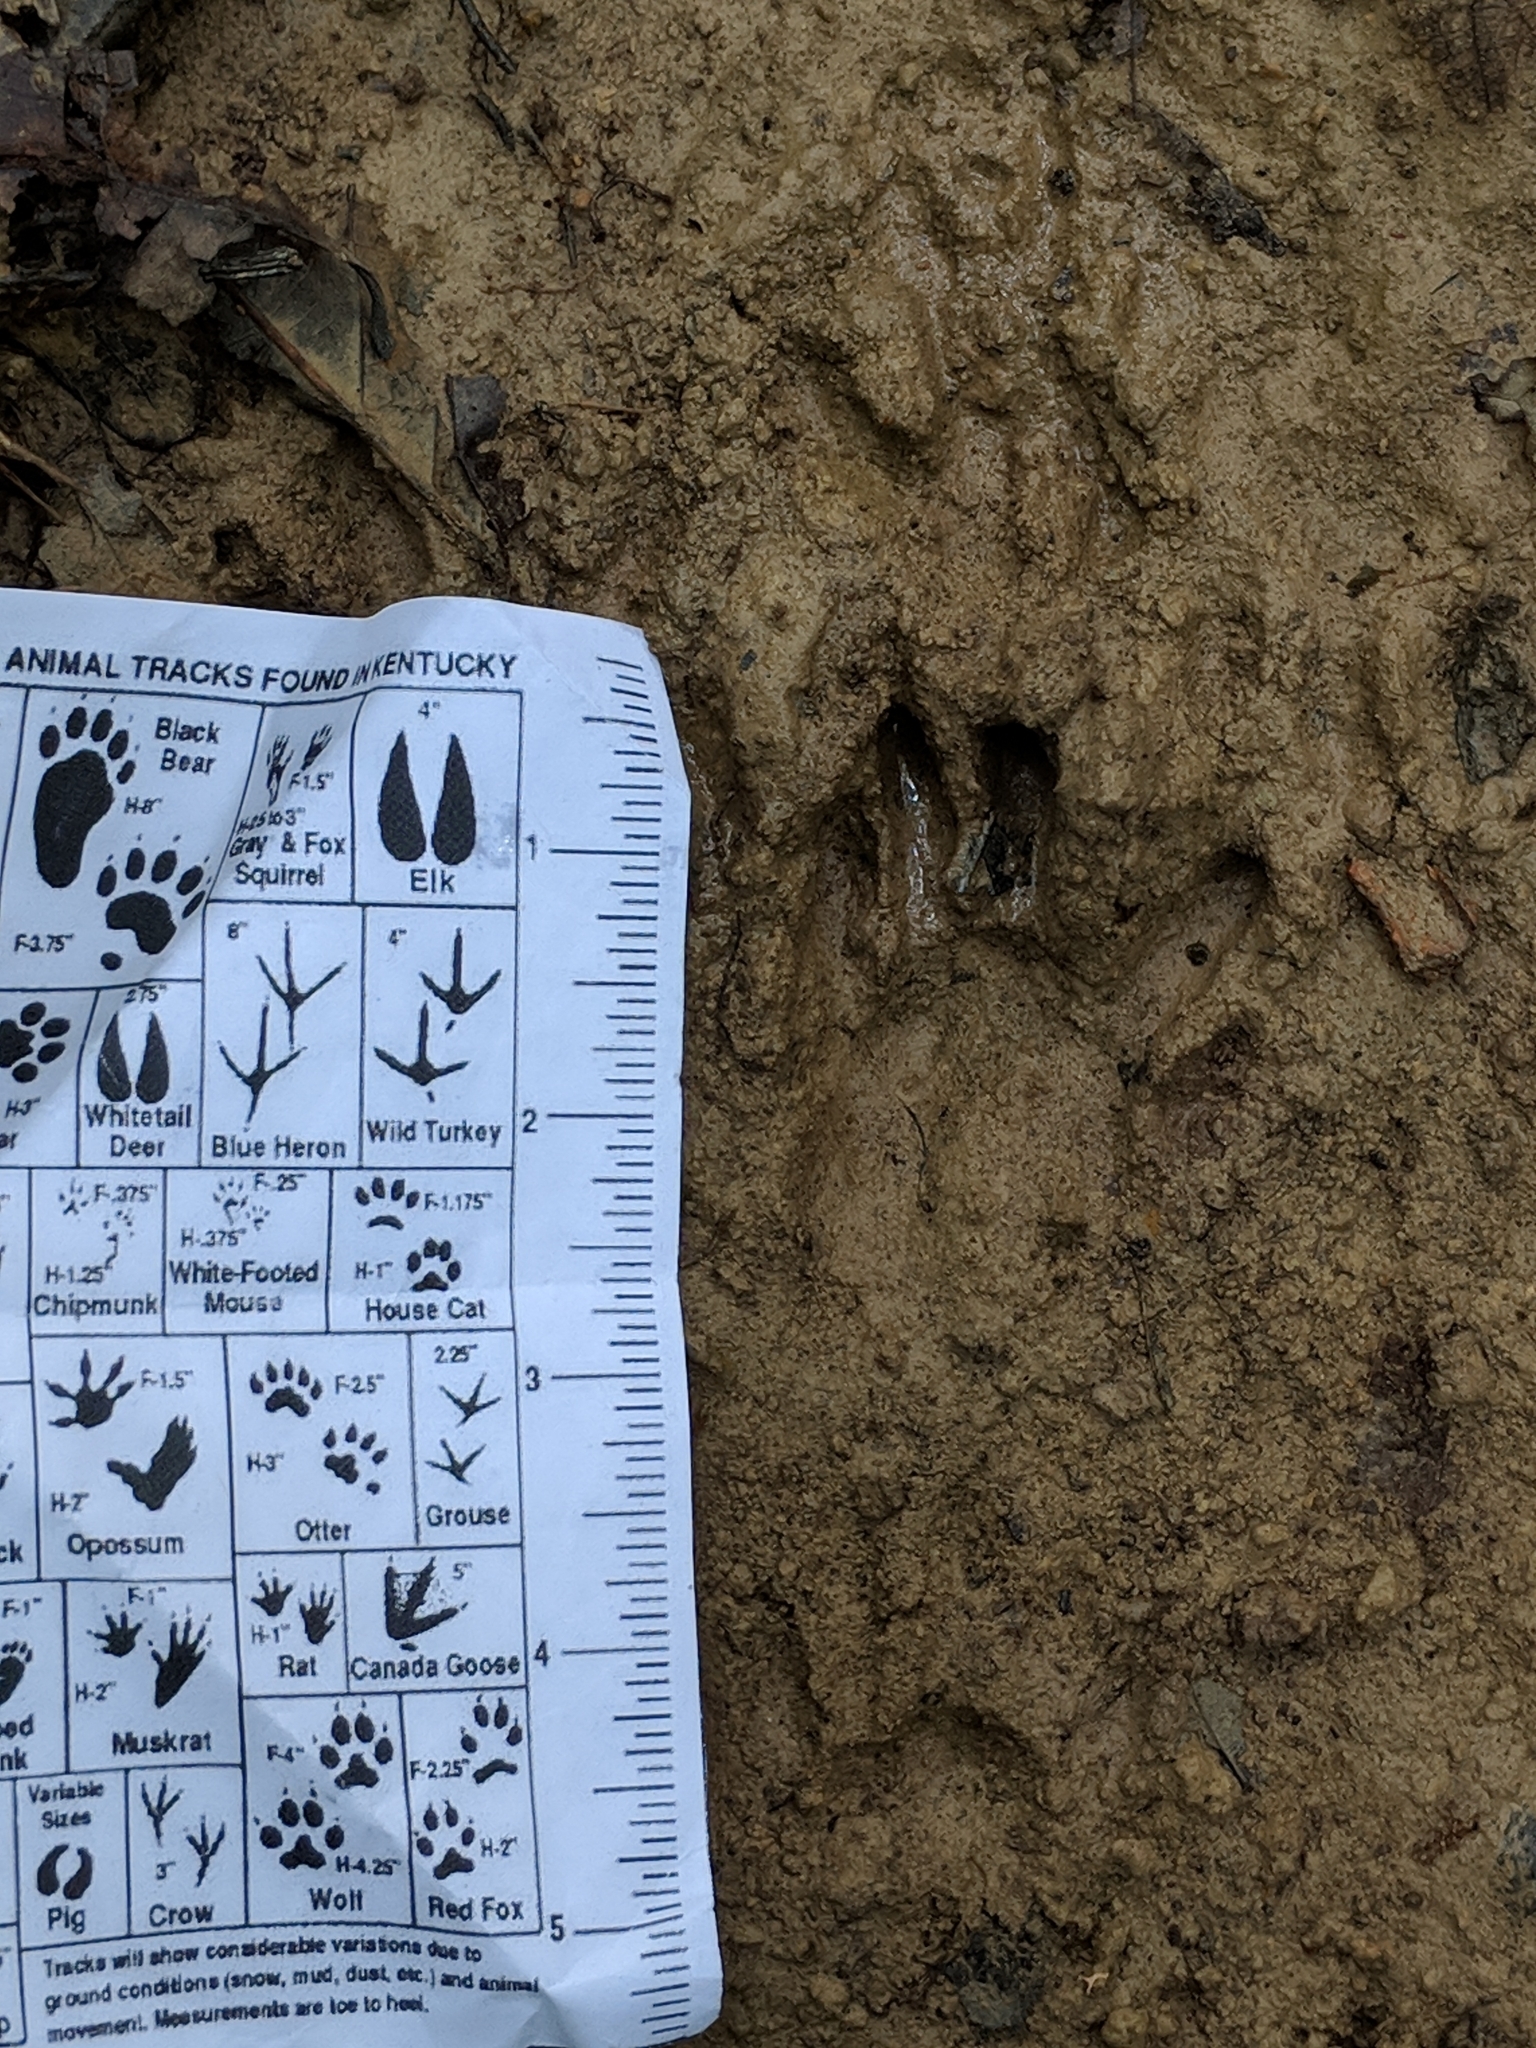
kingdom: Animalia
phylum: Chordata
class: Mammalia
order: Carnivora
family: Procyonidae
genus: Procyon
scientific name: Procyon lotor
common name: Raccoon
